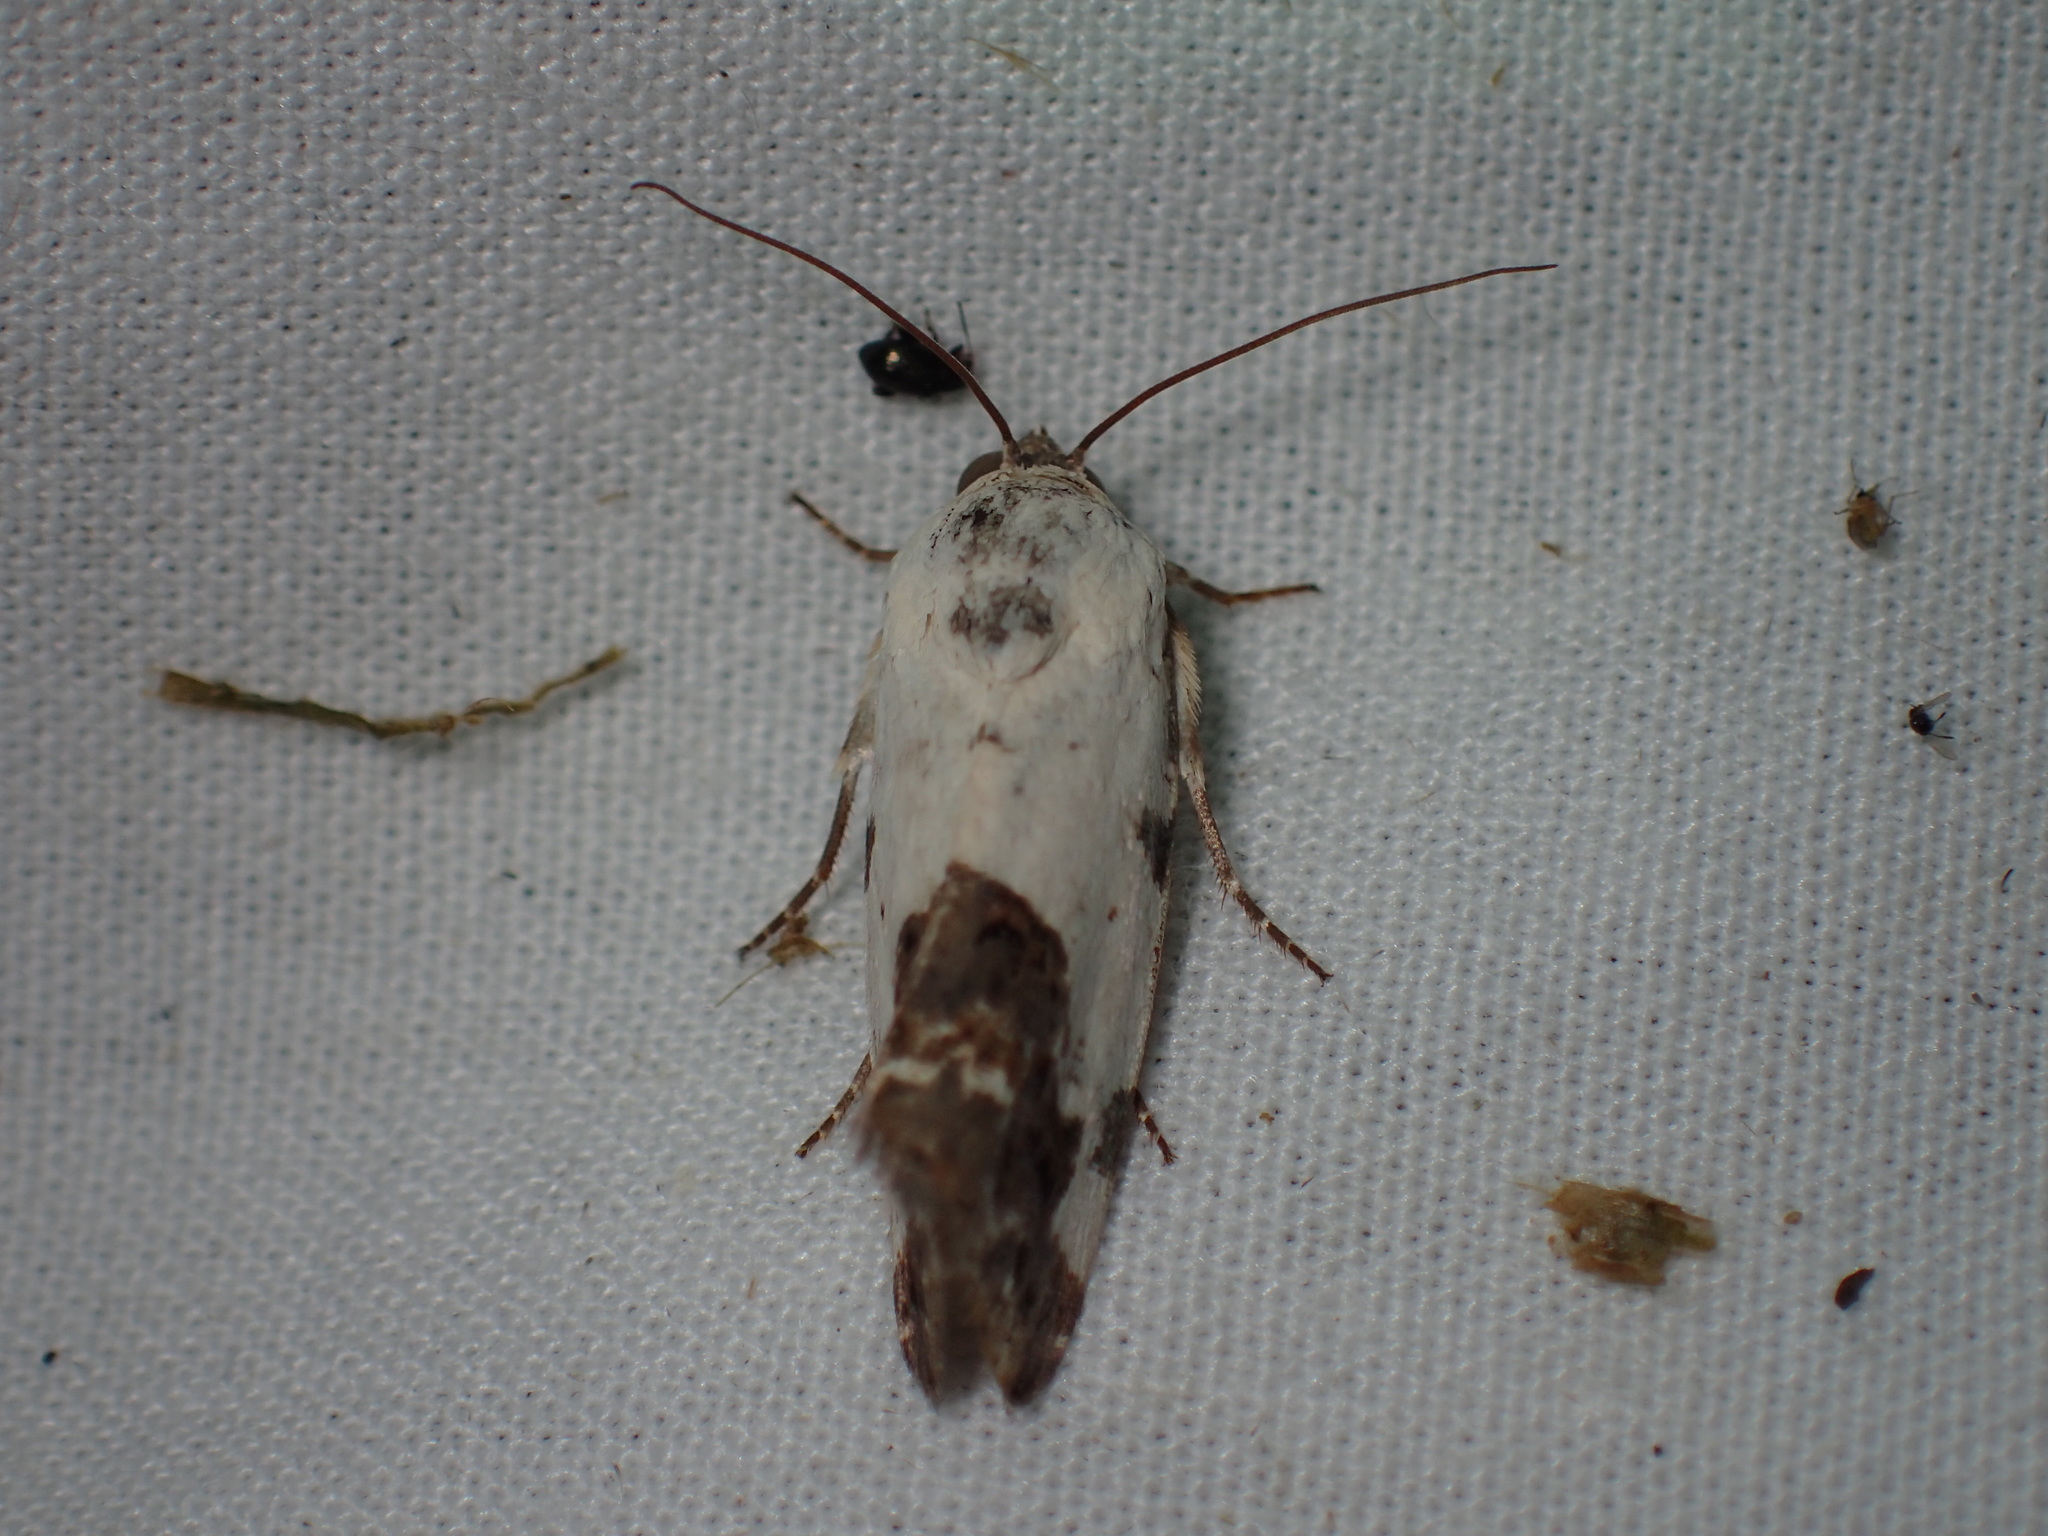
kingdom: Animalia
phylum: Arthropoda
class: Insecta
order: Lepidoptera
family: Noctuidae
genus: Acontia
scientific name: Acontia aprica
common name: Nun
